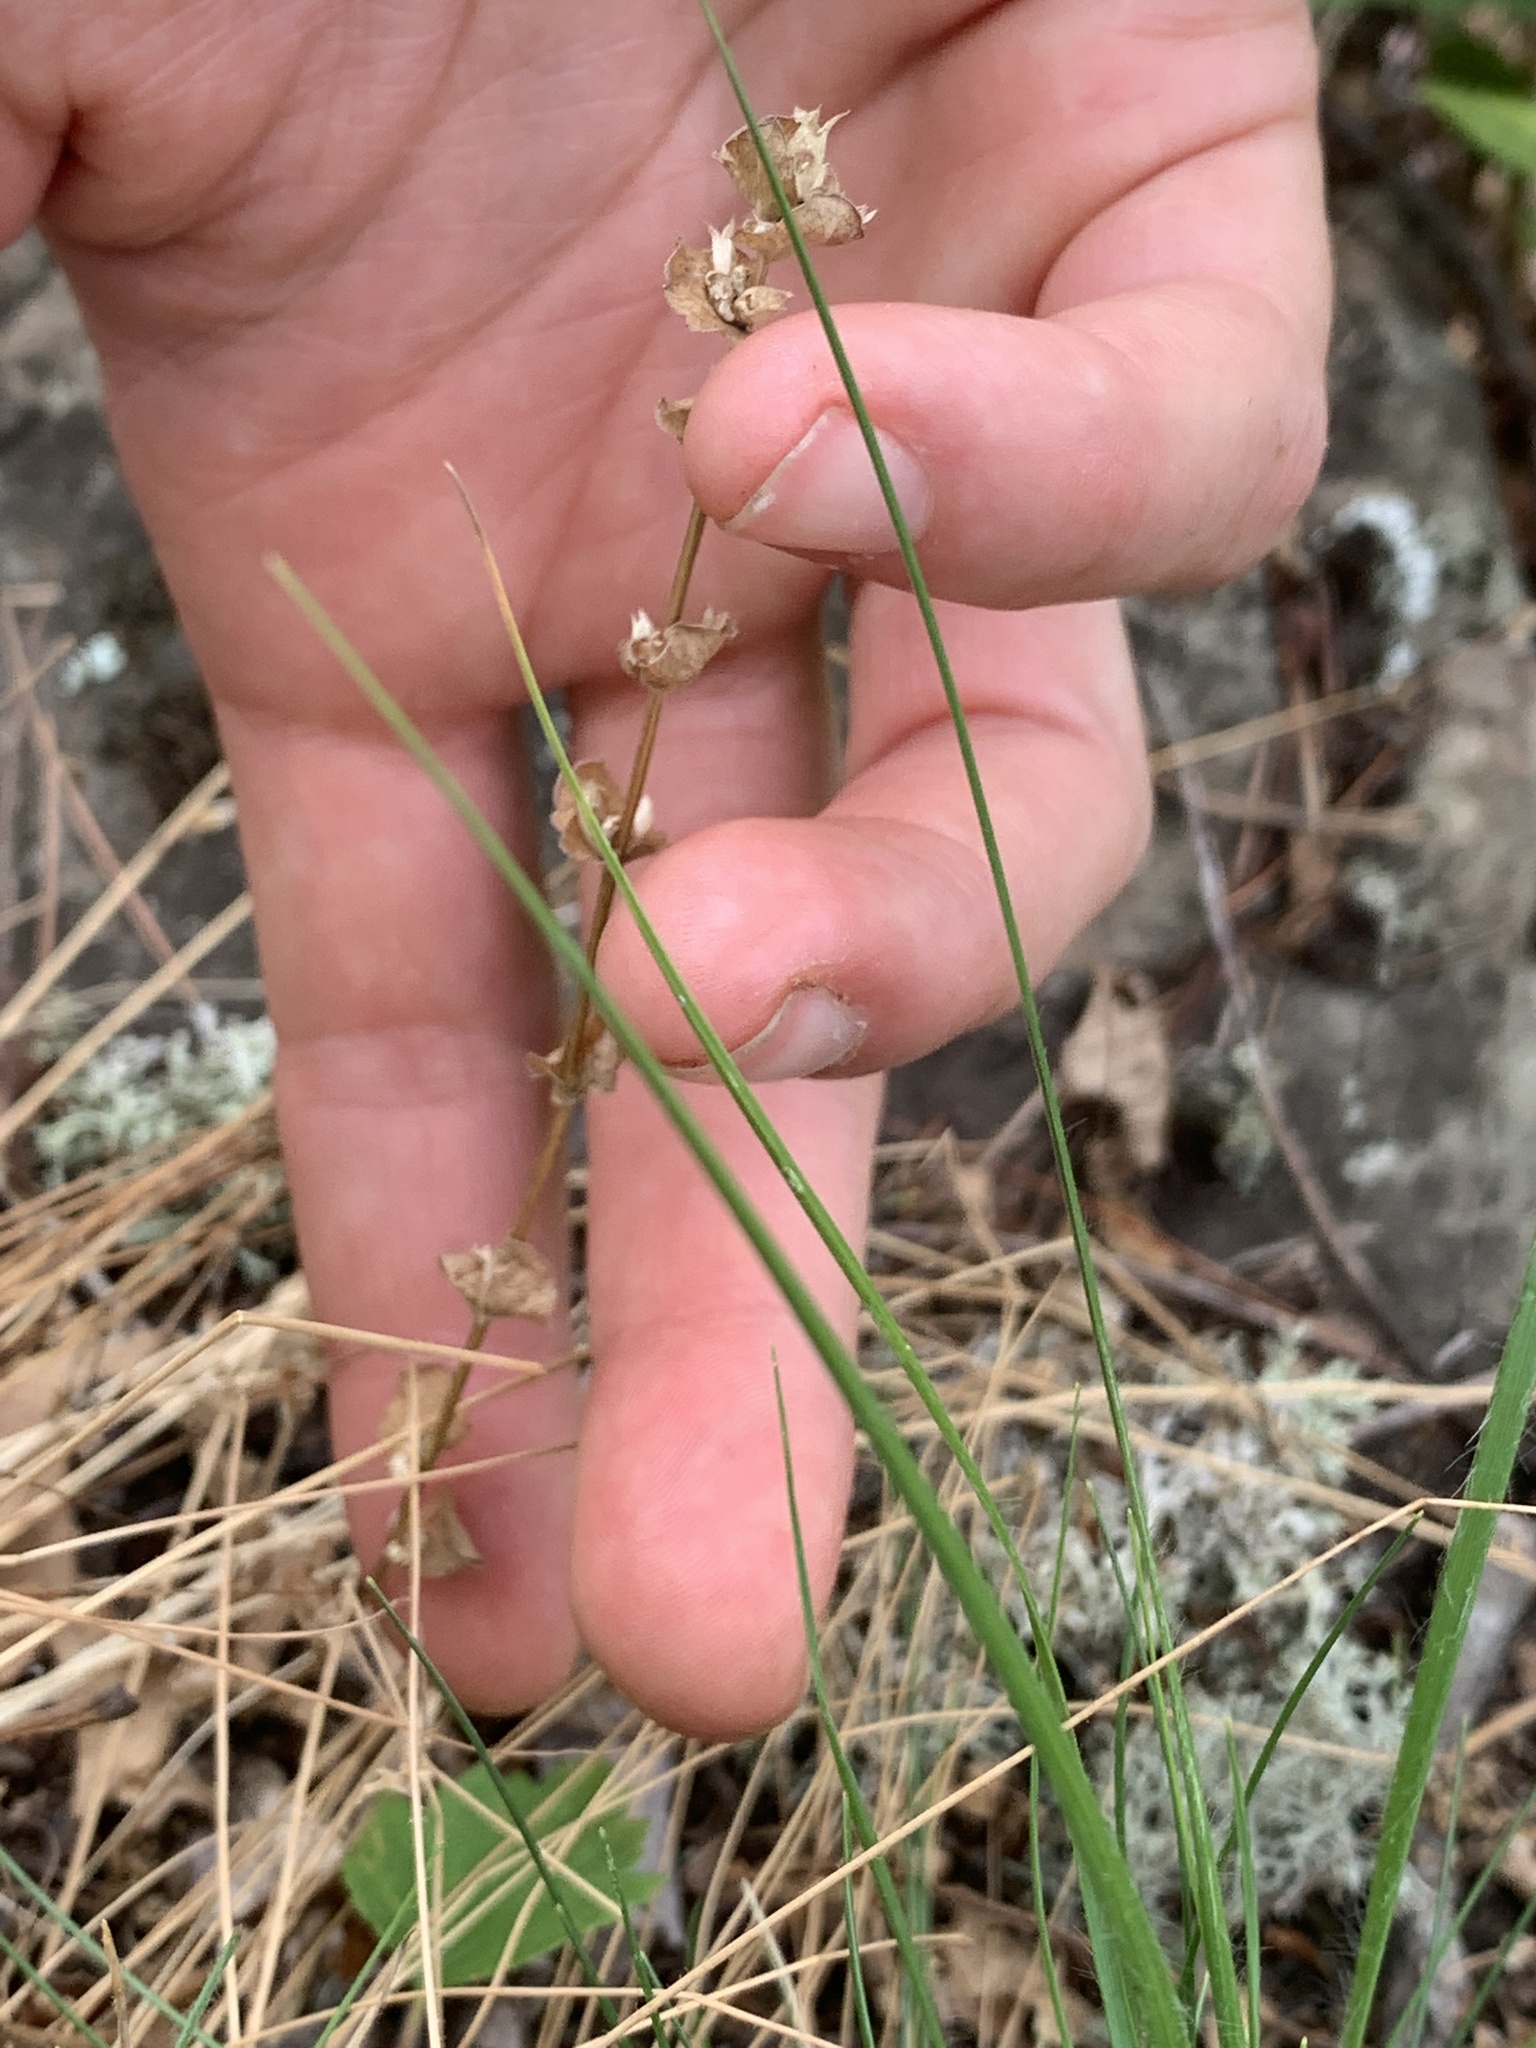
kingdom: Plantae
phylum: Tracheophyta
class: Magnoliopsida
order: Asterales
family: Campanulaceae
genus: Triodanis
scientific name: Triodanis perfoliata
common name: Clasping venus' looking-glass
